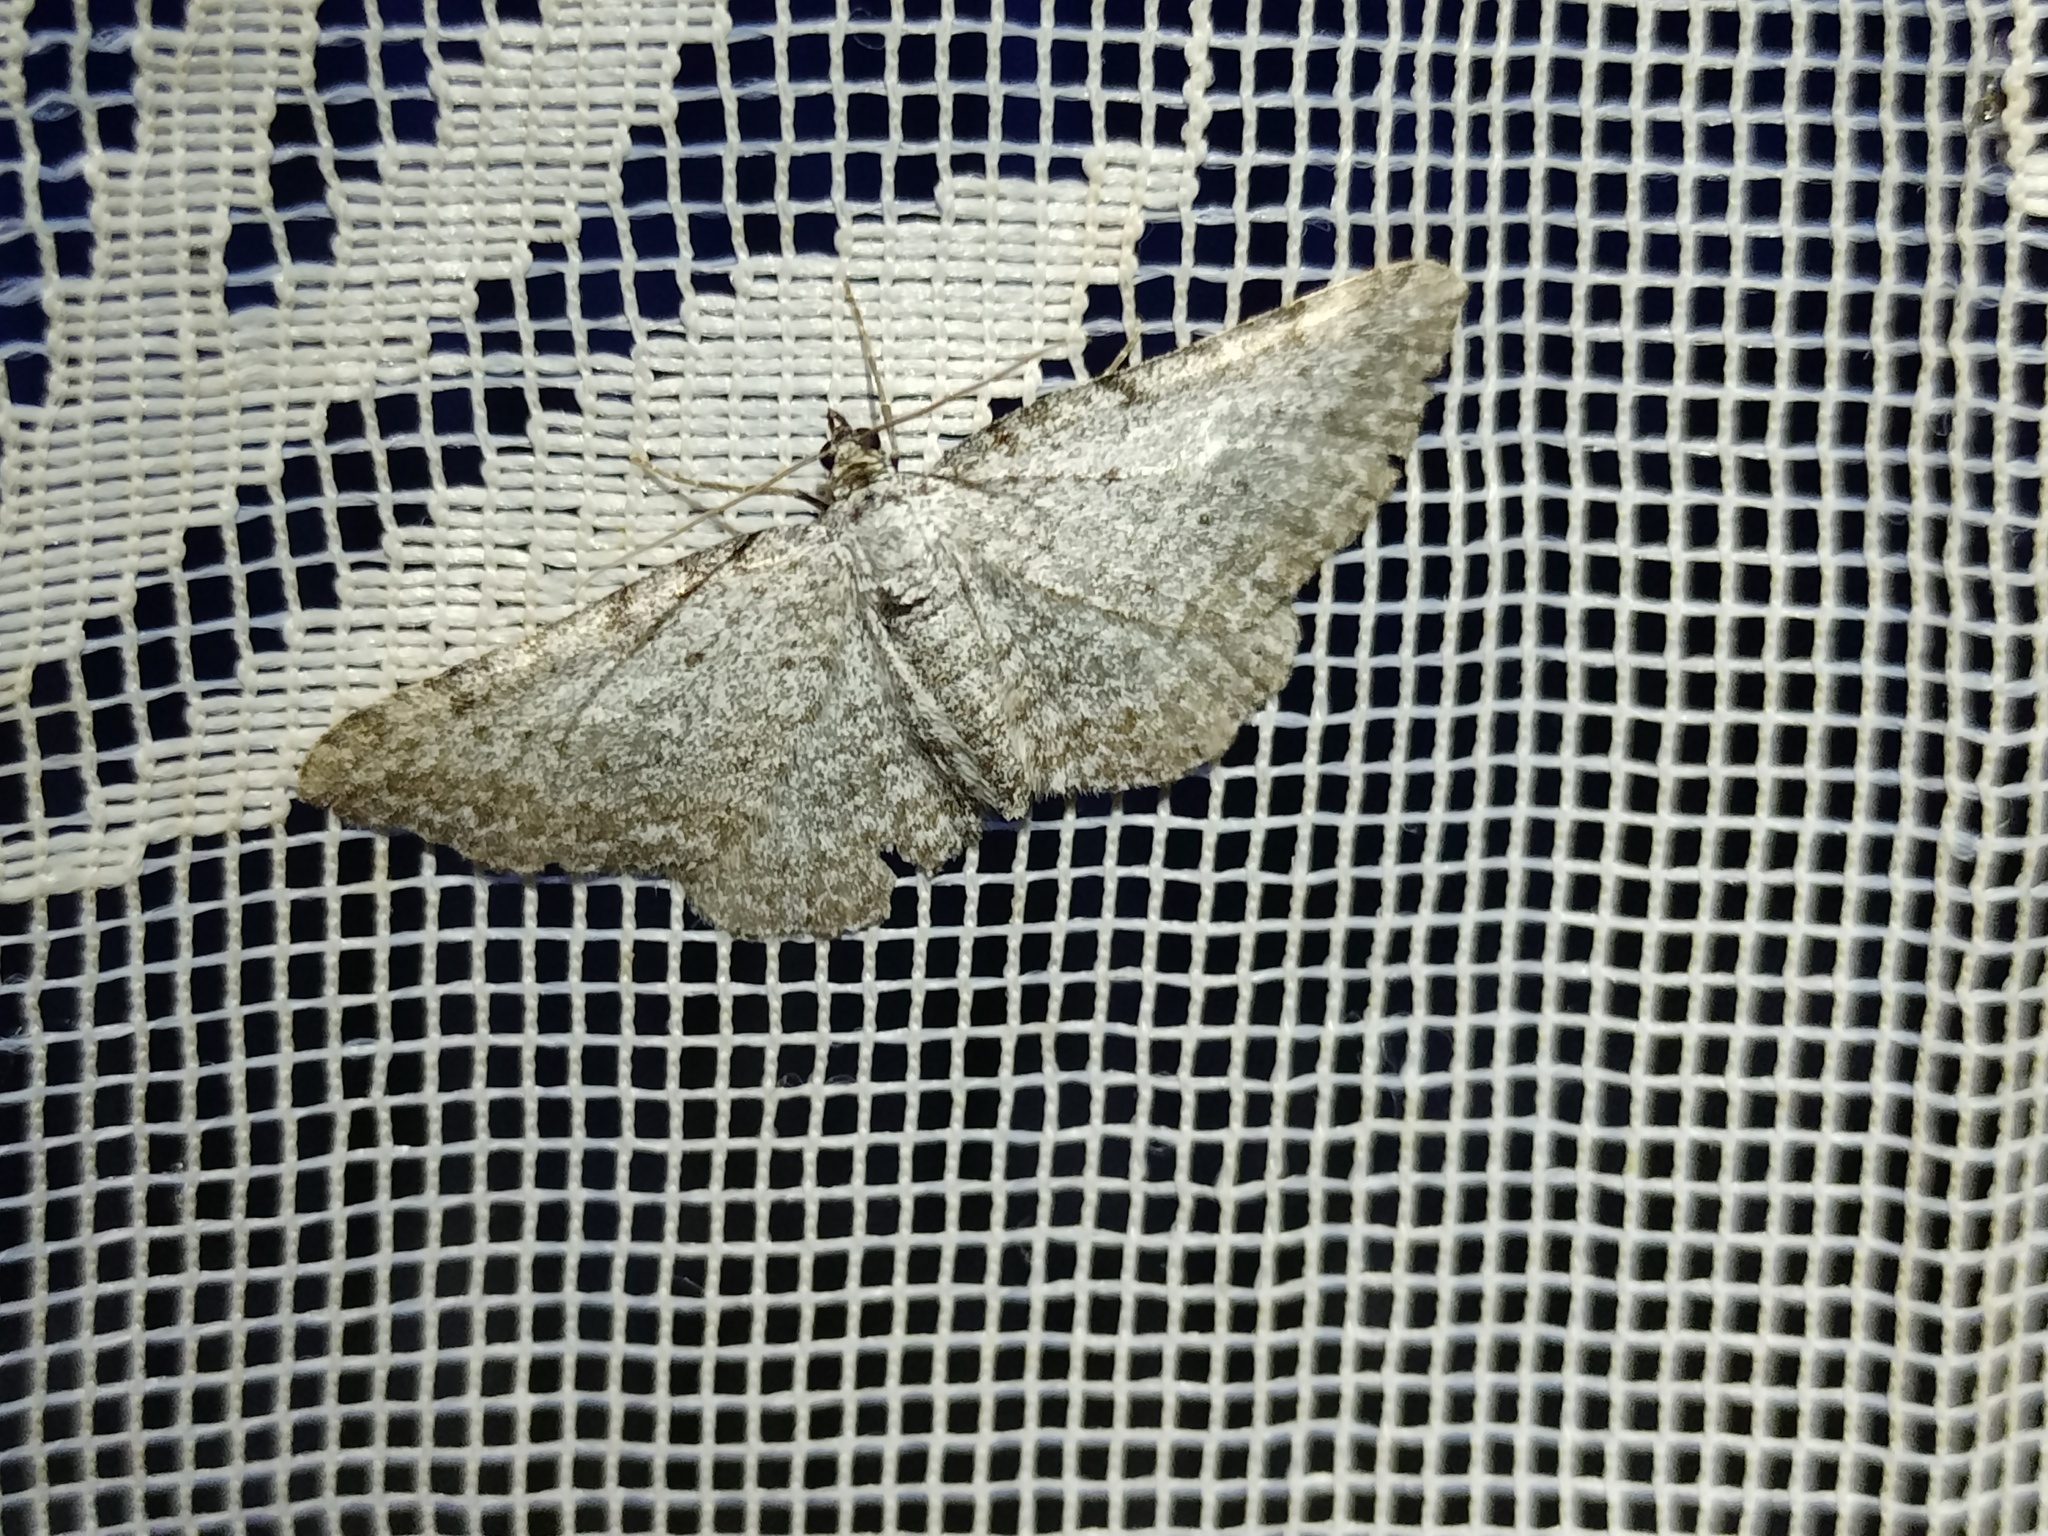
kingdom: Animalia
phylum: Arthropoda
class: Insecta
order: Lepidoptera
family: Geometridae
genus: Horisme
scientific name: Horisme calligraphata
